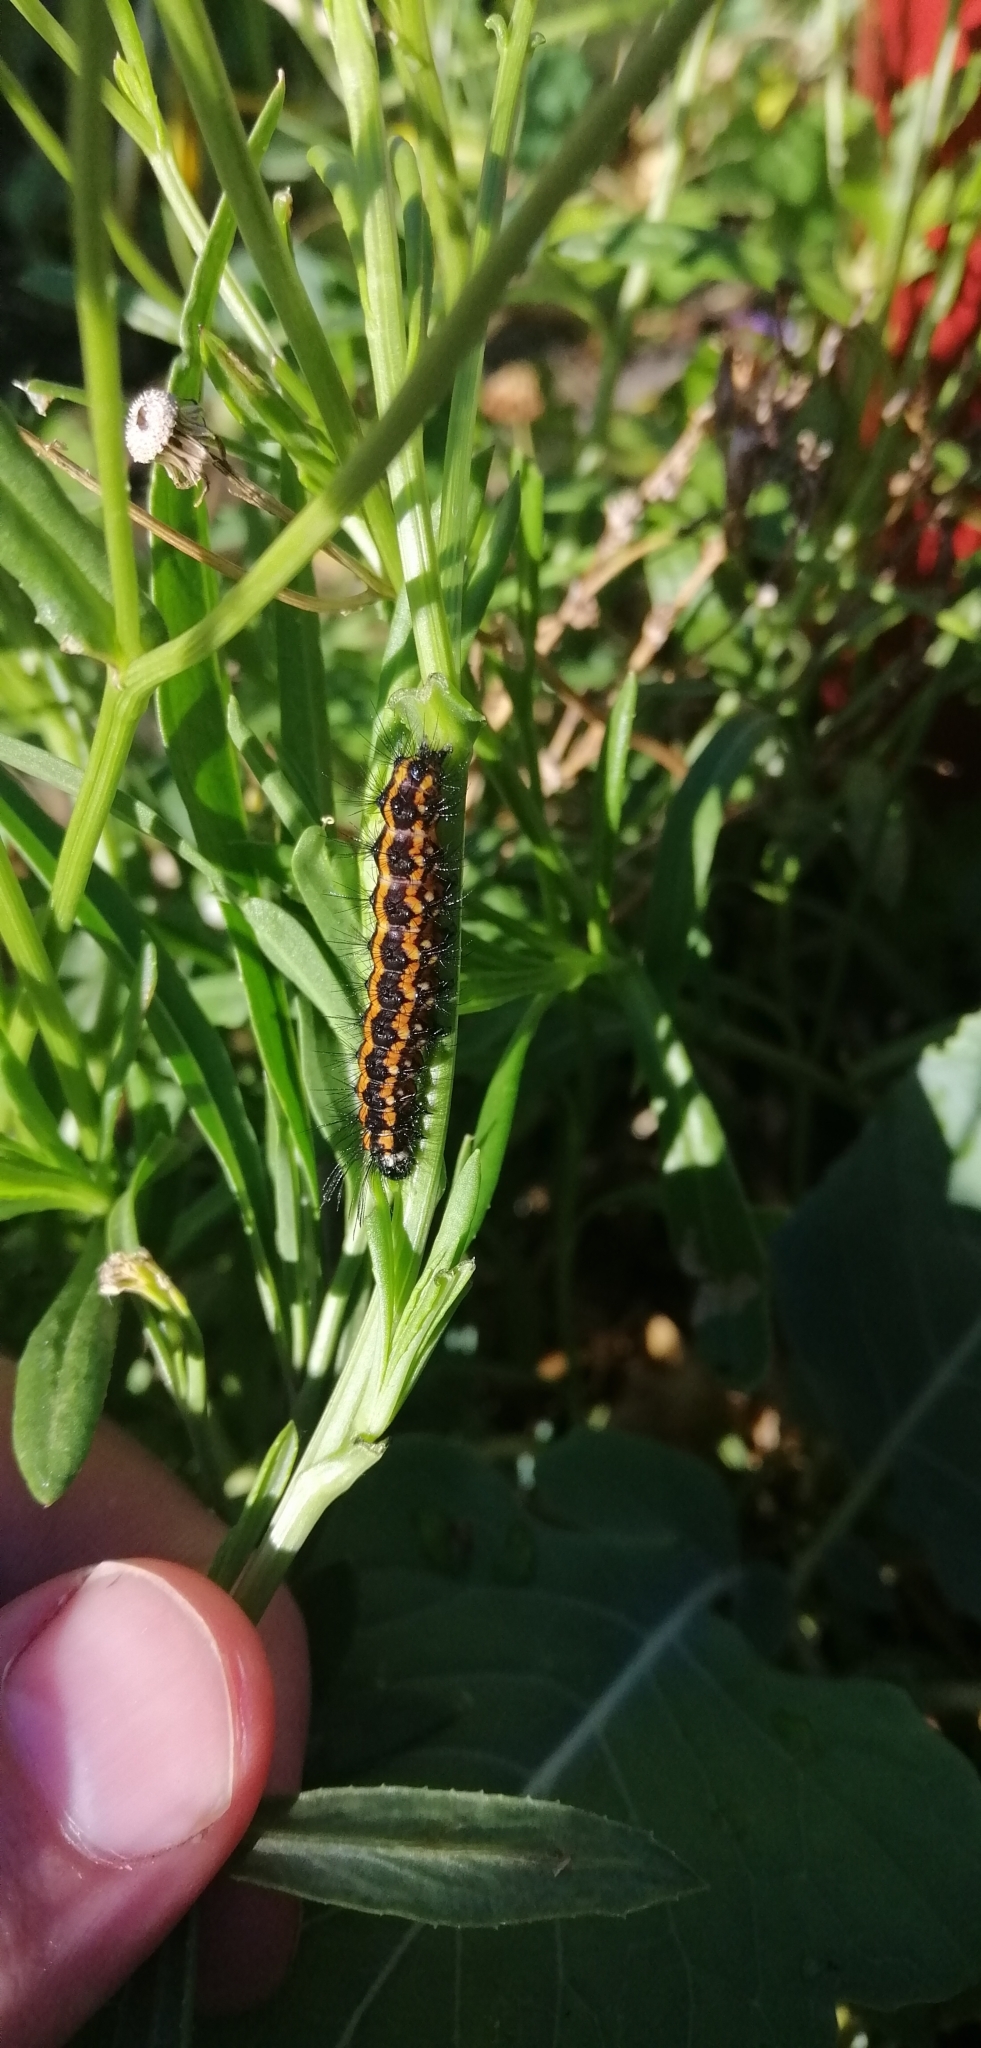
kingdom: Animalia
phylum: Arthropoda
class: Insecta
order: Lepidoptera
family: Erebidae
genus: Nyctemera
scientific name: Nyctemera
